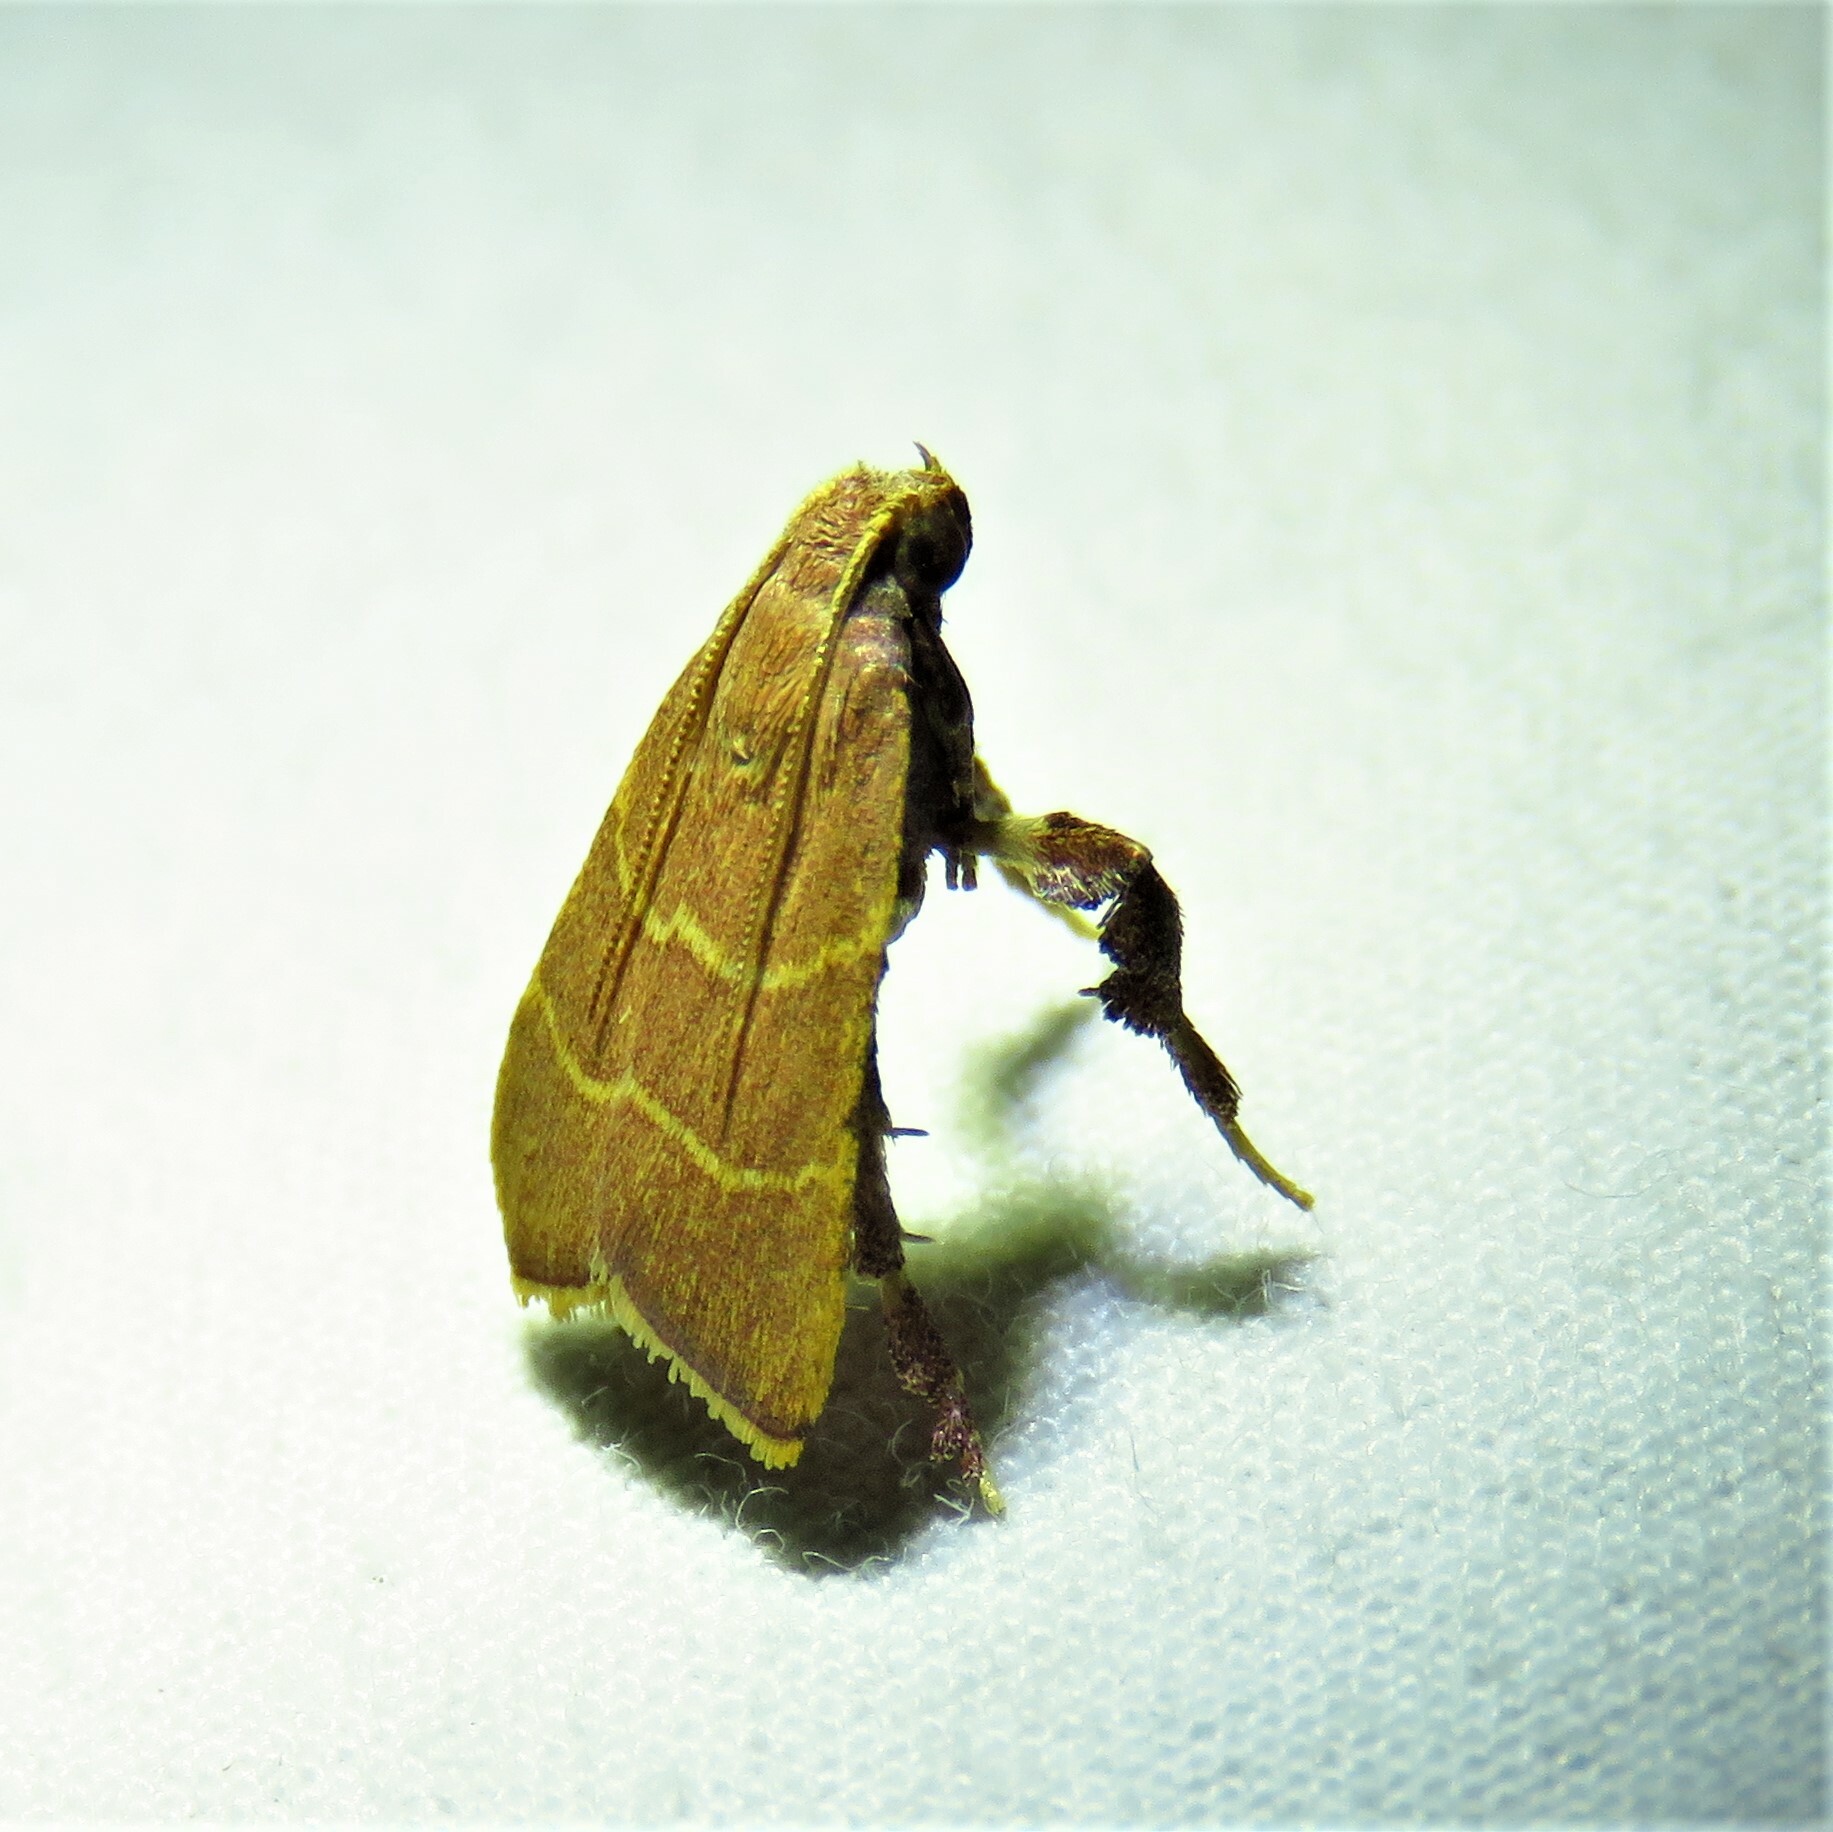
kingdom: Animalia
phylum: Arthropoda
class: Insecta
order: Lepidoptera
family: Pyralidae
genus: Parachma
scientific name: Parachma ochracealis
